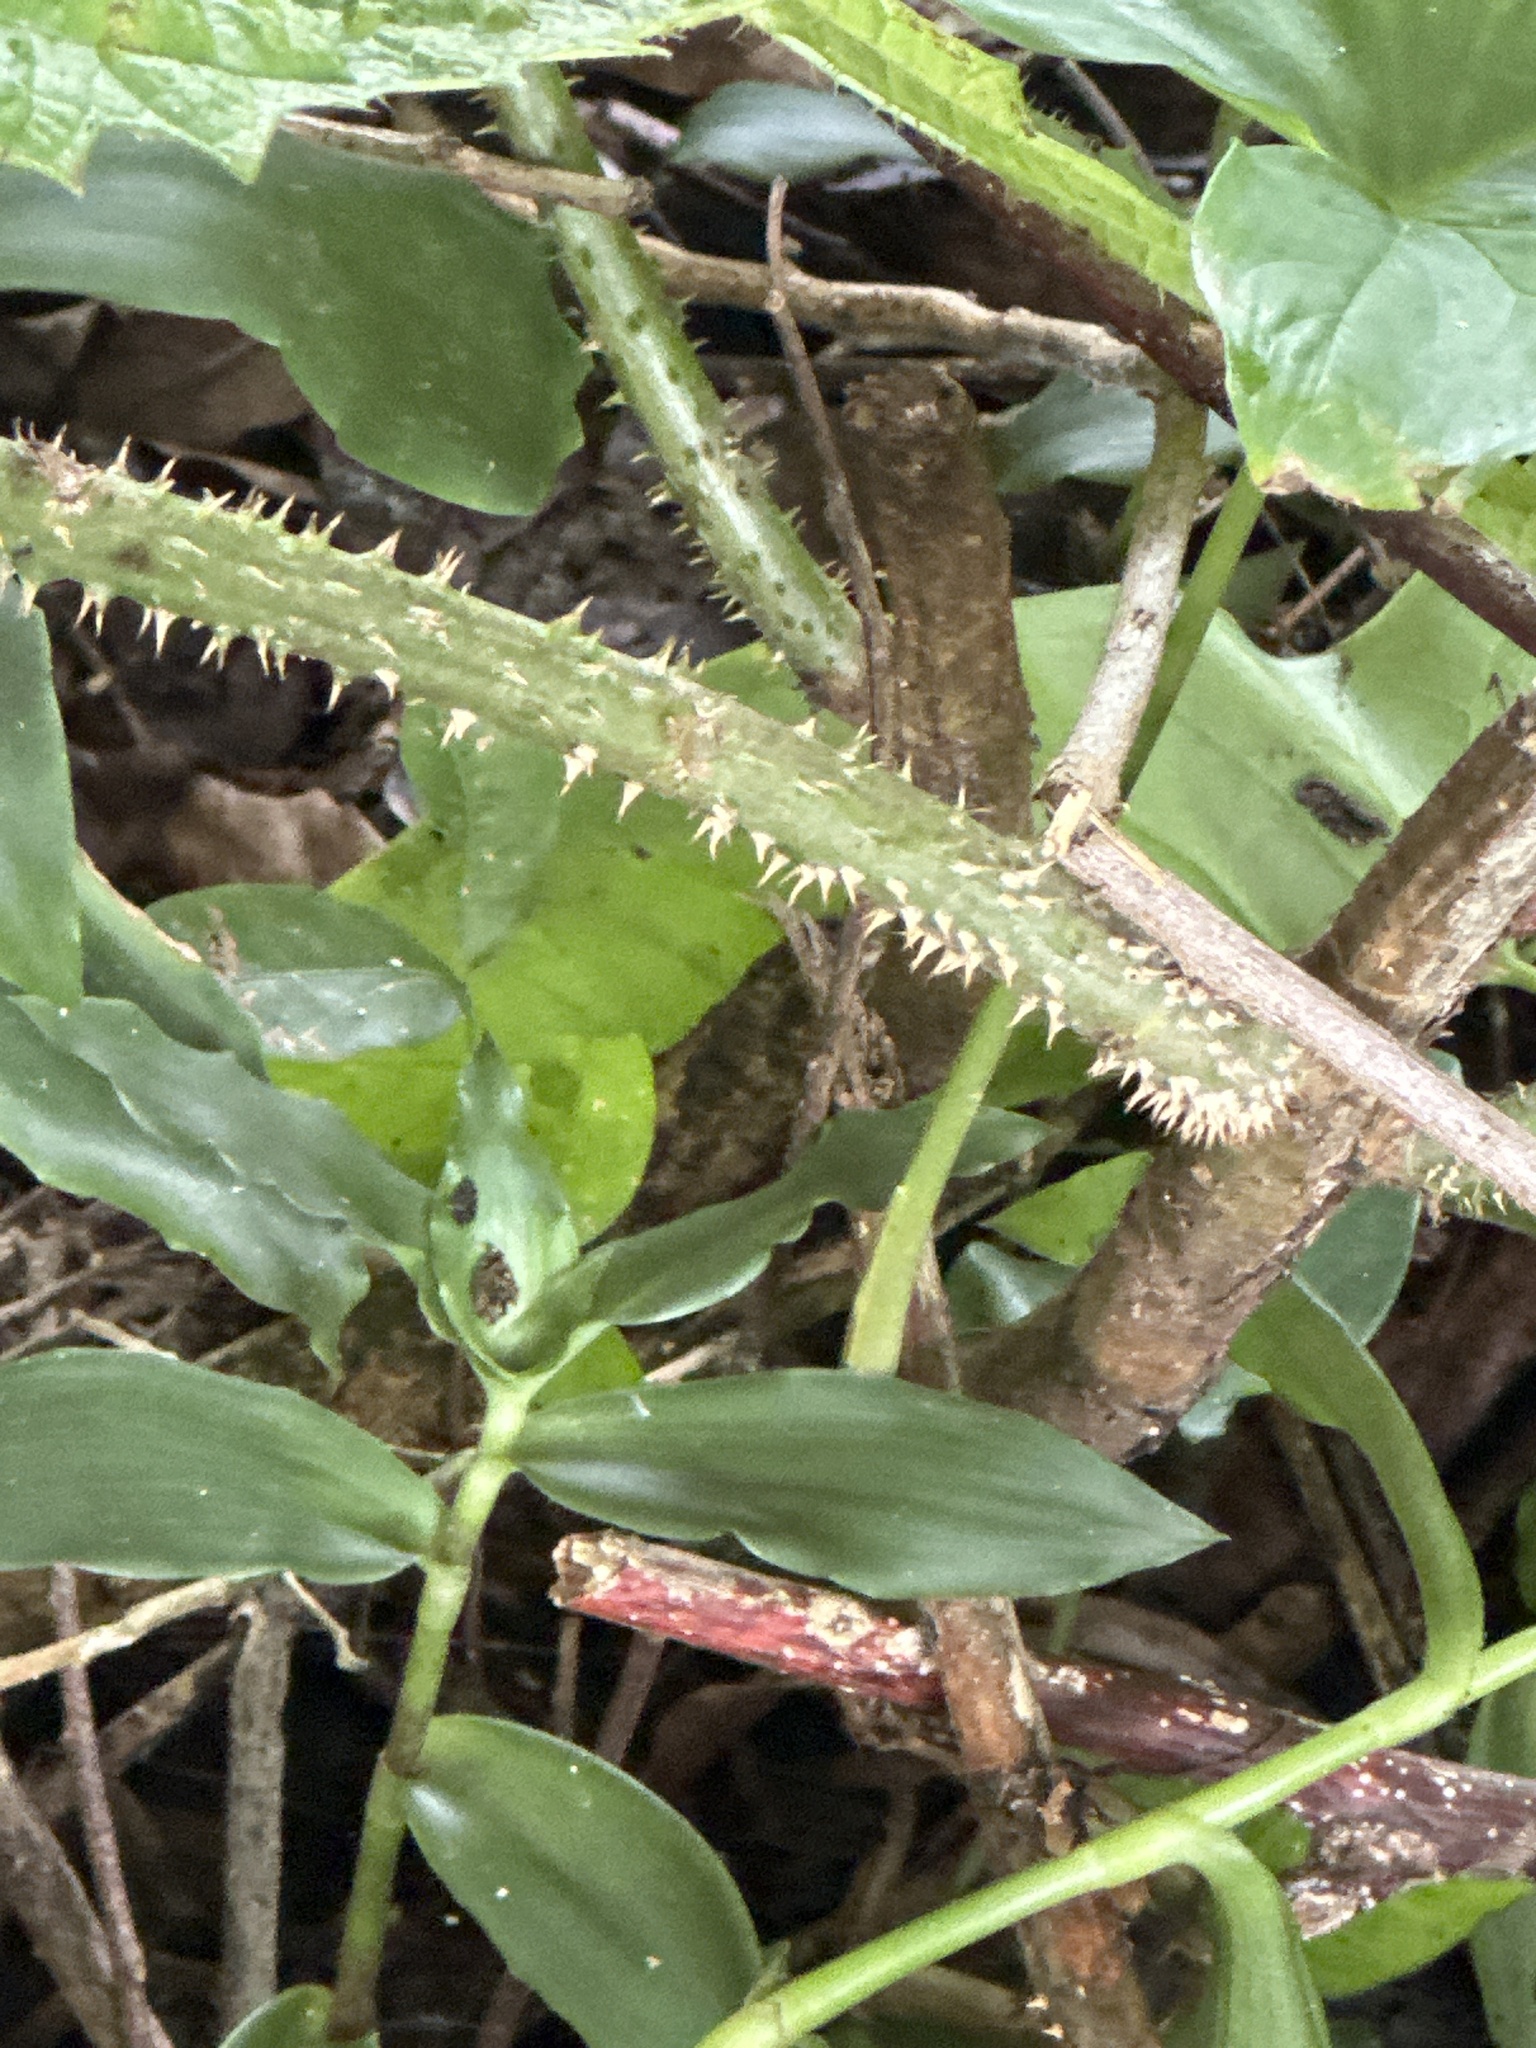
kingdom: Plantae
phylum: Tracheophyta
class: Magnoliopsida
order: Rosales
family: Urticaceae
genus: Urera
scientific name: Urera baccifera
